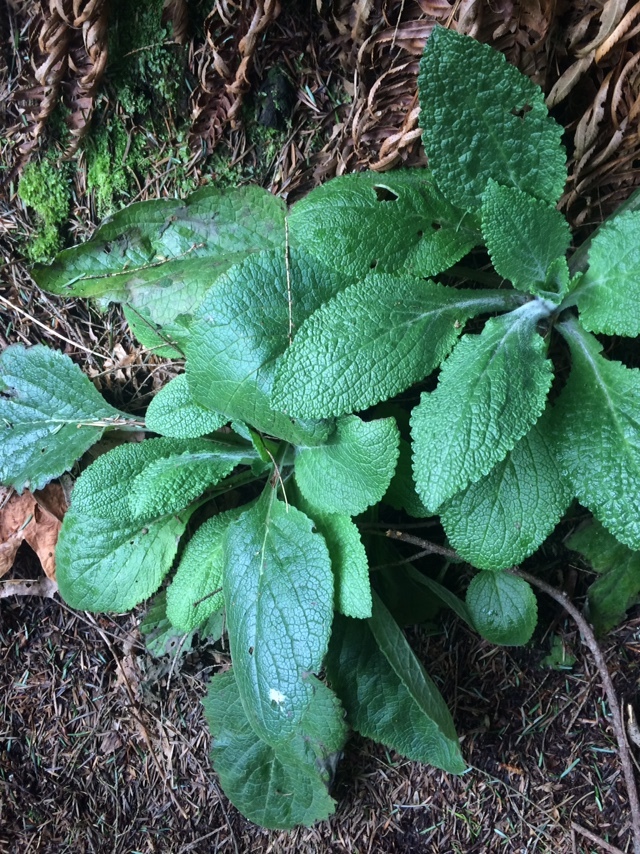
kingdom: Plantae
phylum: Tracheophyta
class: Magnoliopsida
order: Lamiales
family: Plantaginaceae
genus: Digitalis
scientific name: Digitalis purpurea
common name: Foxglove
